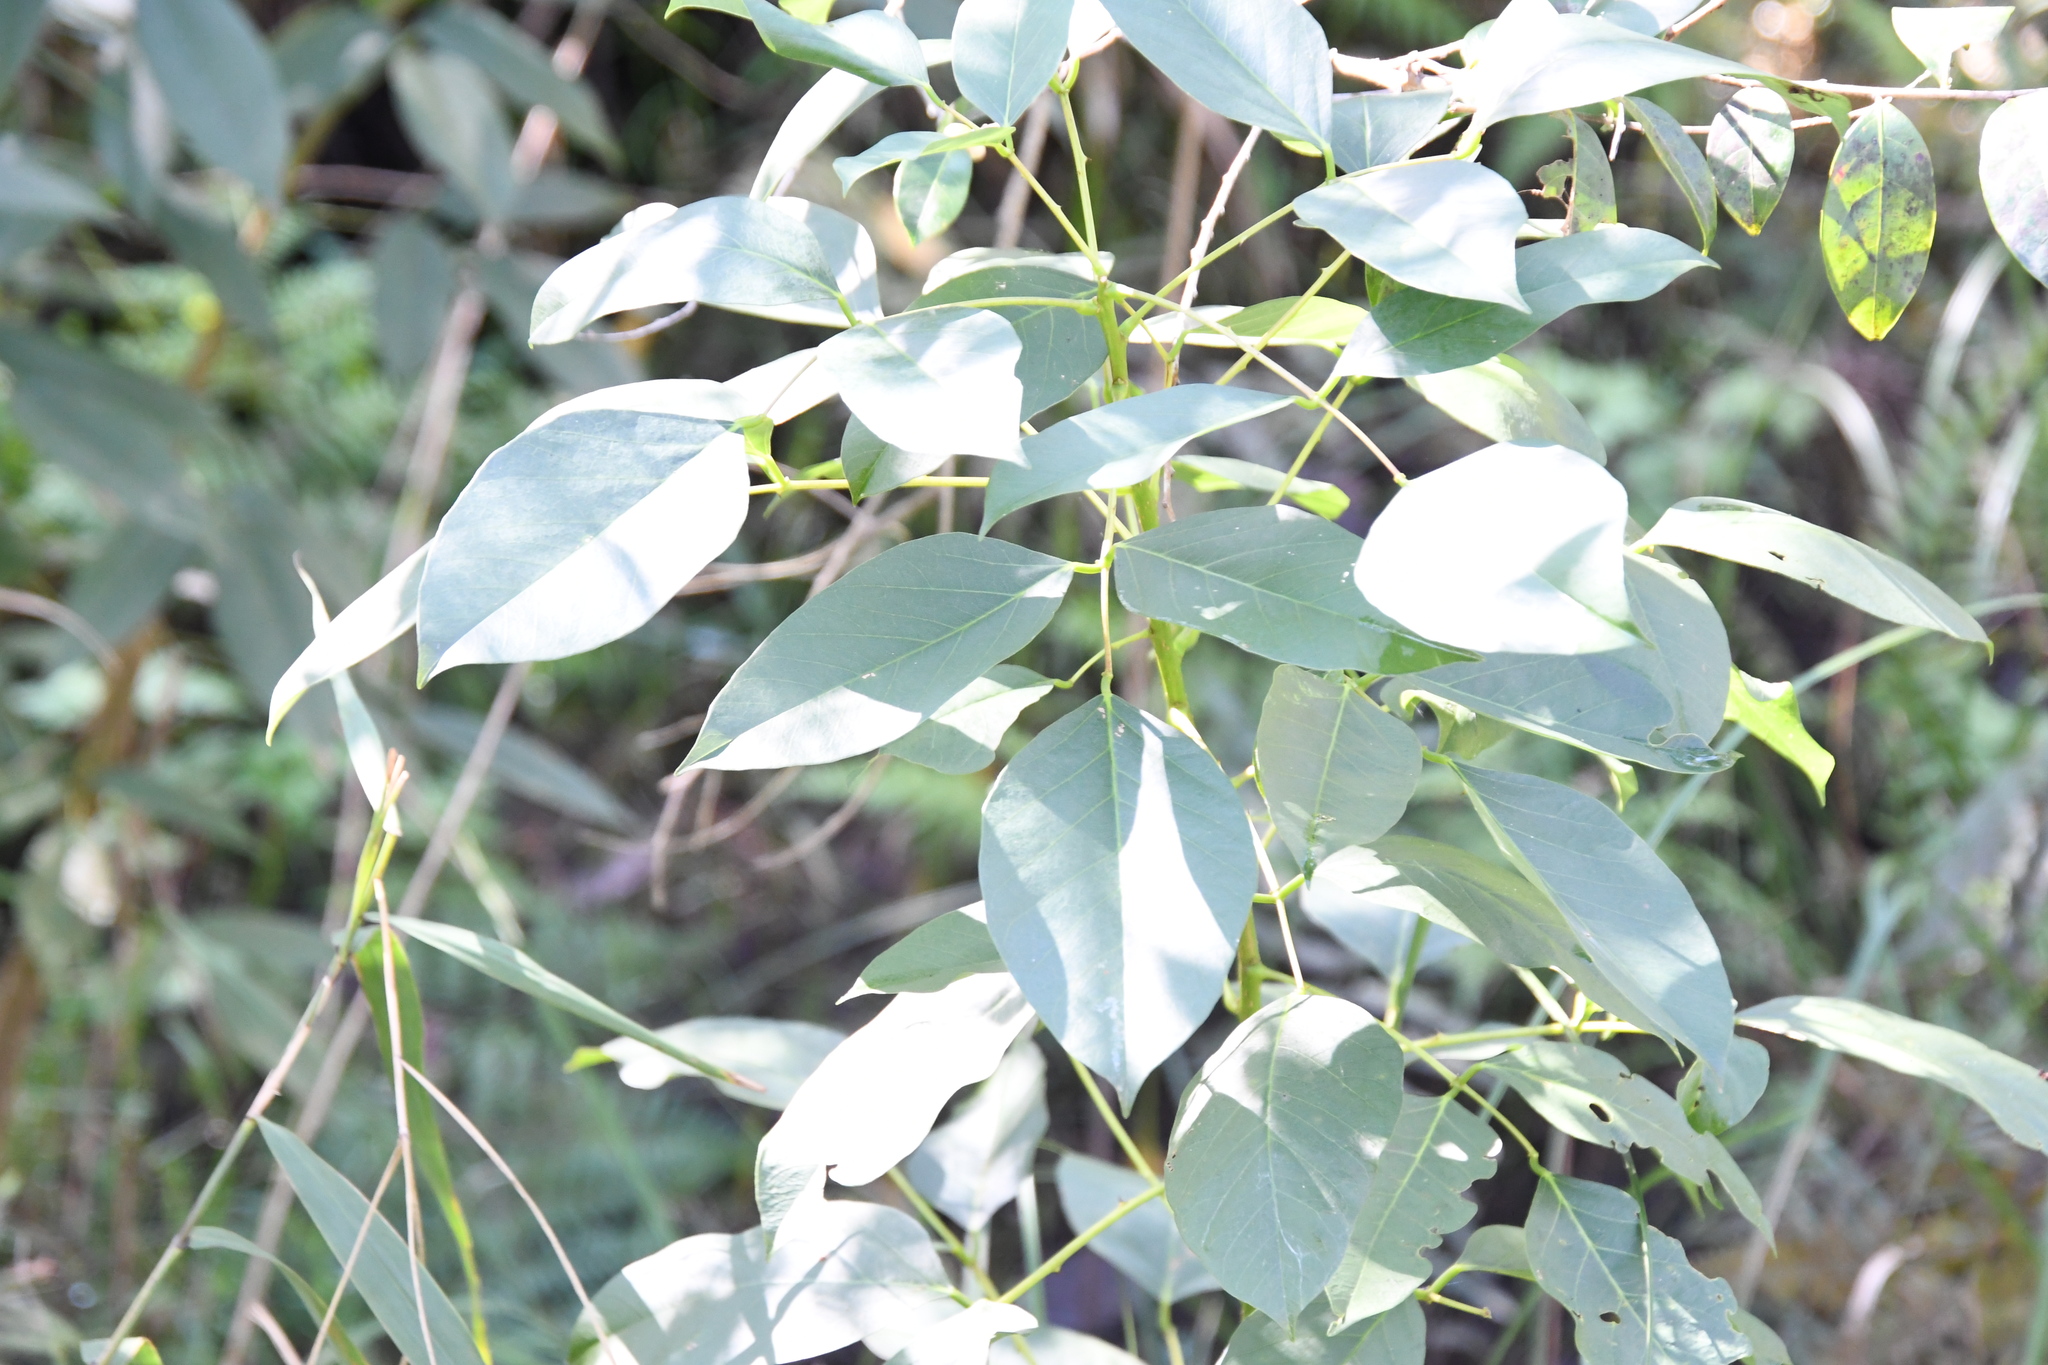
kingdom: Plantae
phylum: Tracheophyta
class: Magnoliopsida
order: Fabales
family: Fabaceae
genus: Erythrina
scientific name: Erythrina crista-galli
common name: Cockspur coral tree
